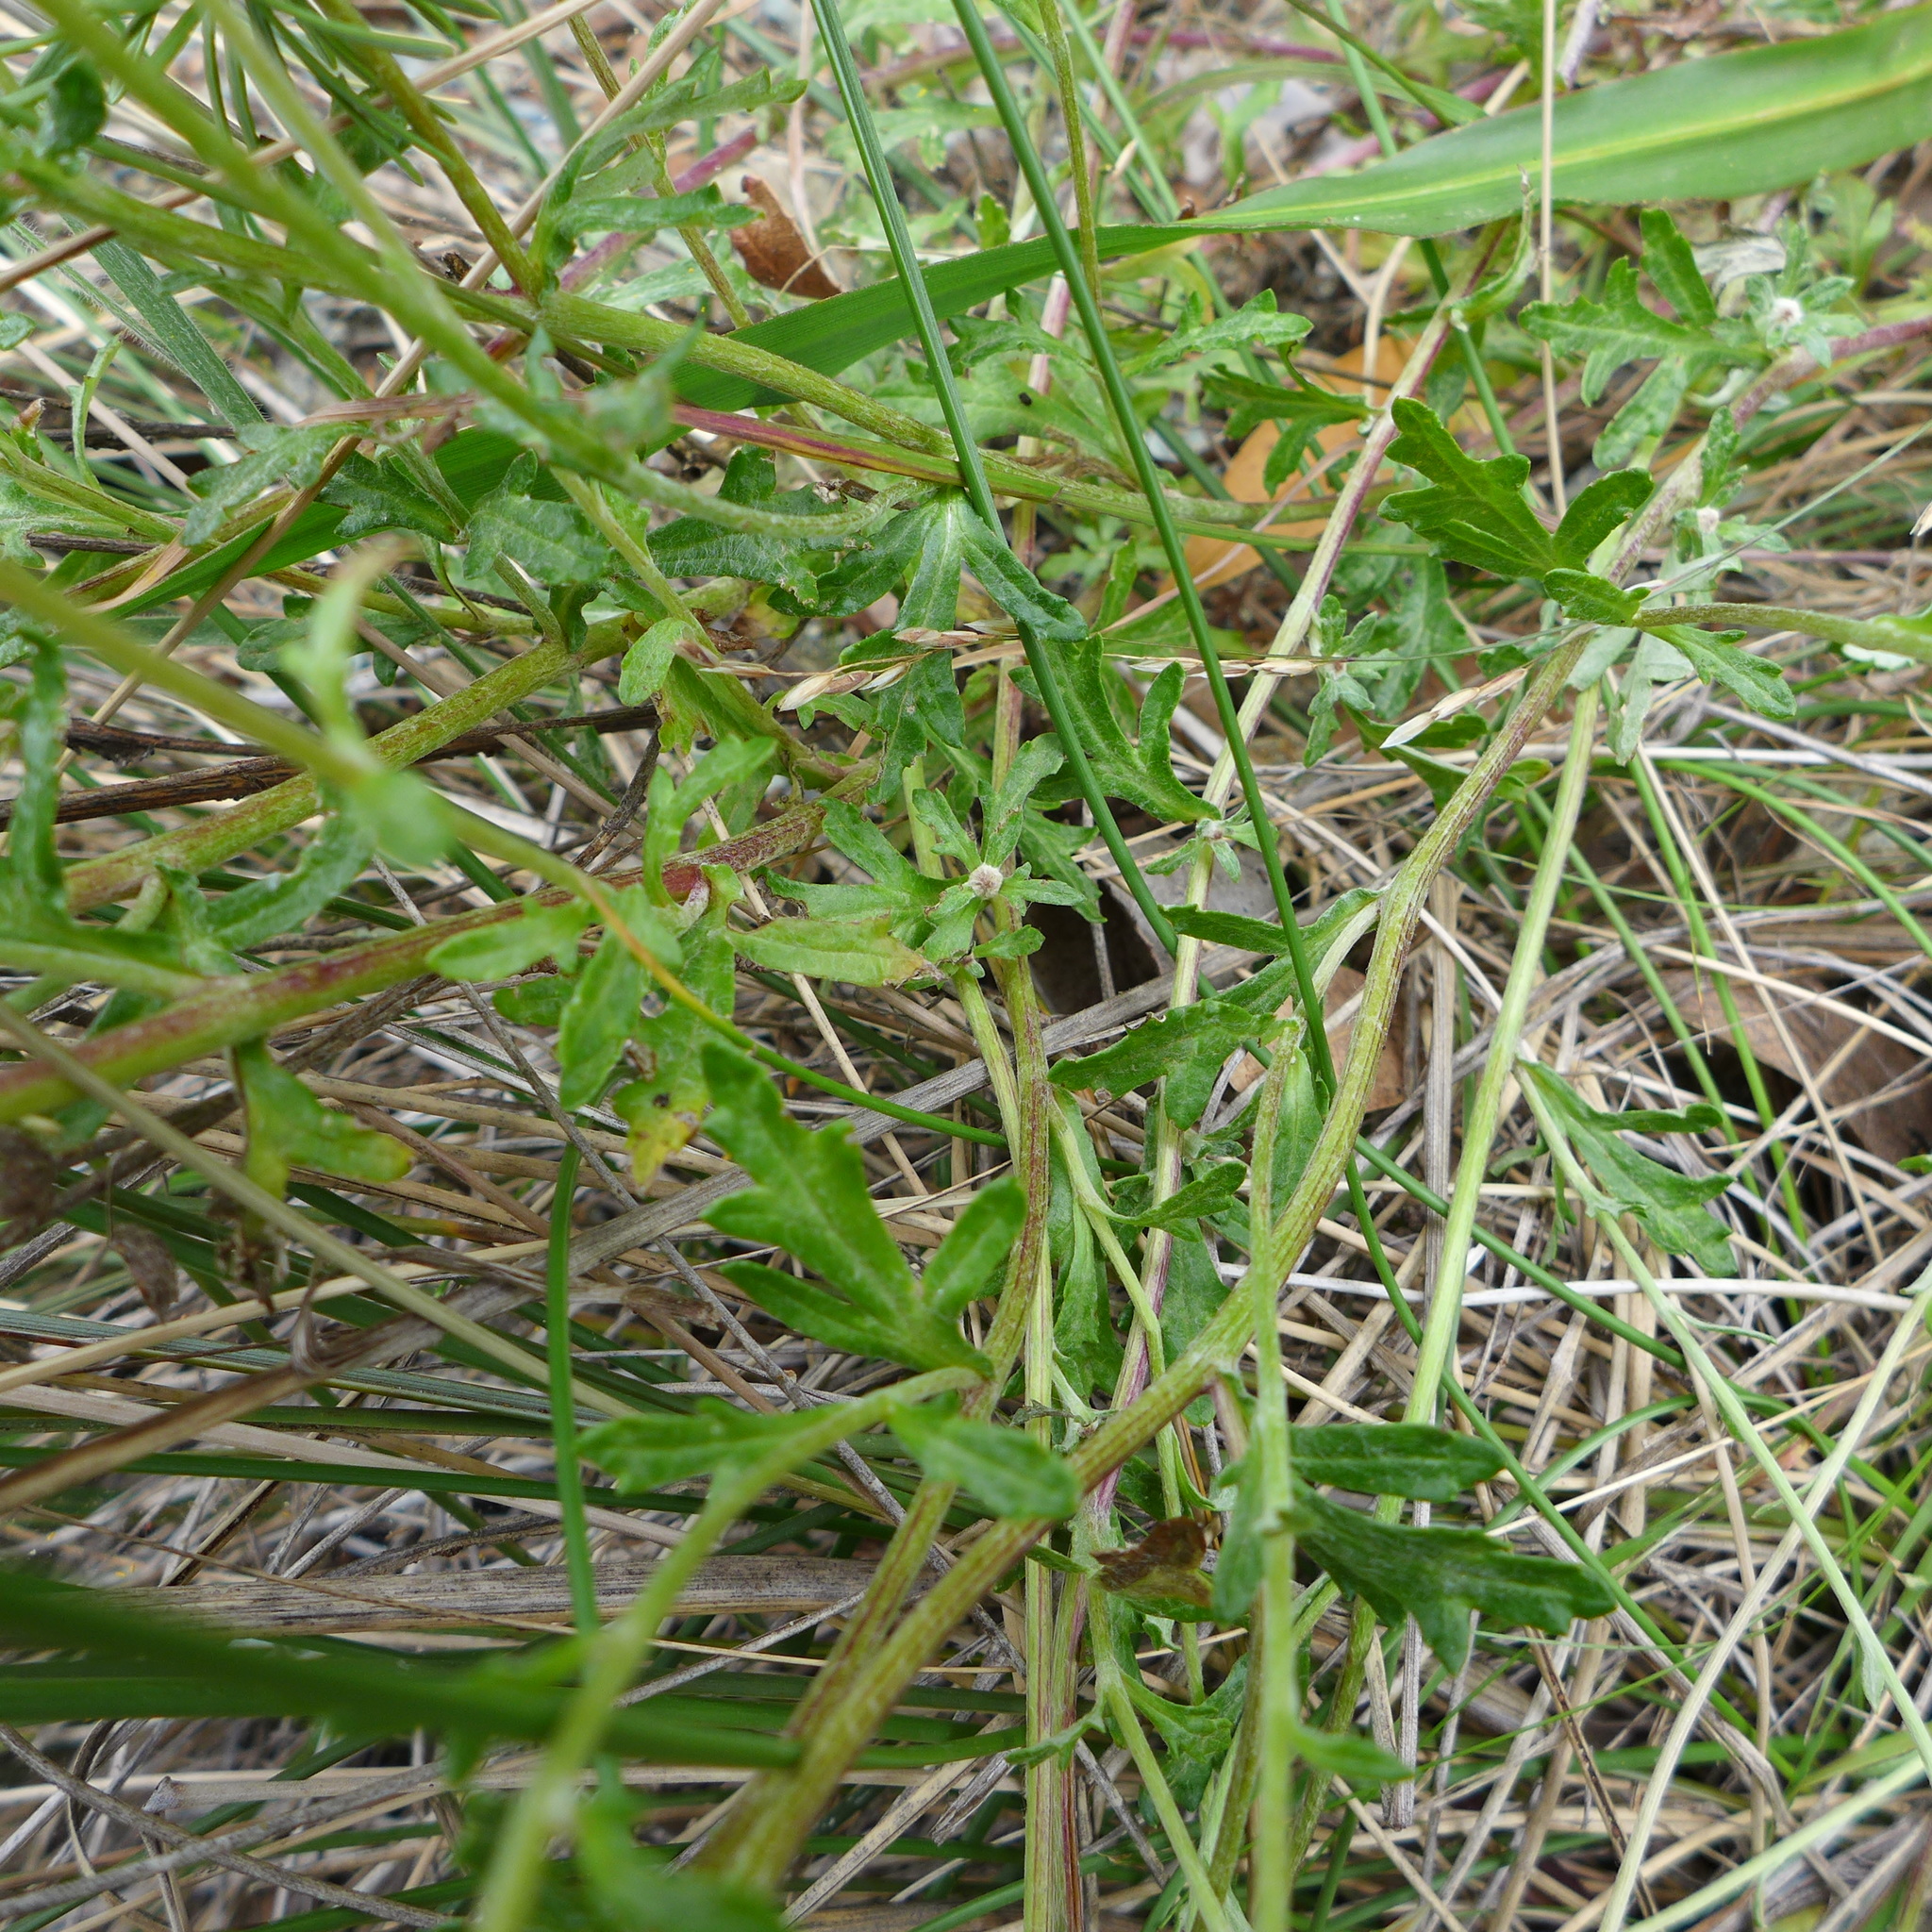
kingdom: Plantae
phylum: Tracheophyta
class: Magnoliopsida
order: Asterales
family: Asteraceae
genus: Eriophyllum
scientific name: Eriophyllum lanatum
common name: Common woolly-sunflower
